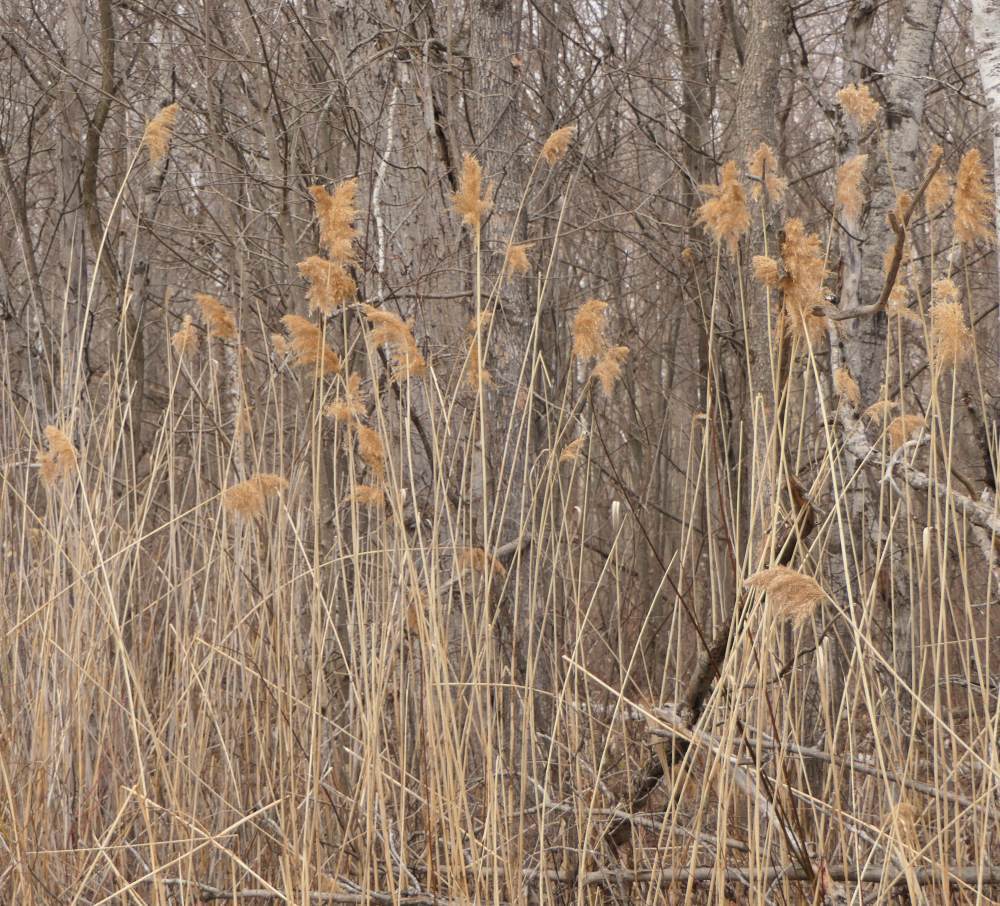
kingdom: Plantae
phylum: Tracheophyta
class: Liliopsida
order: Poales
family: Poaceae
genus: Phragmites
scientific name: Phragmites australis
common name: Common reed
